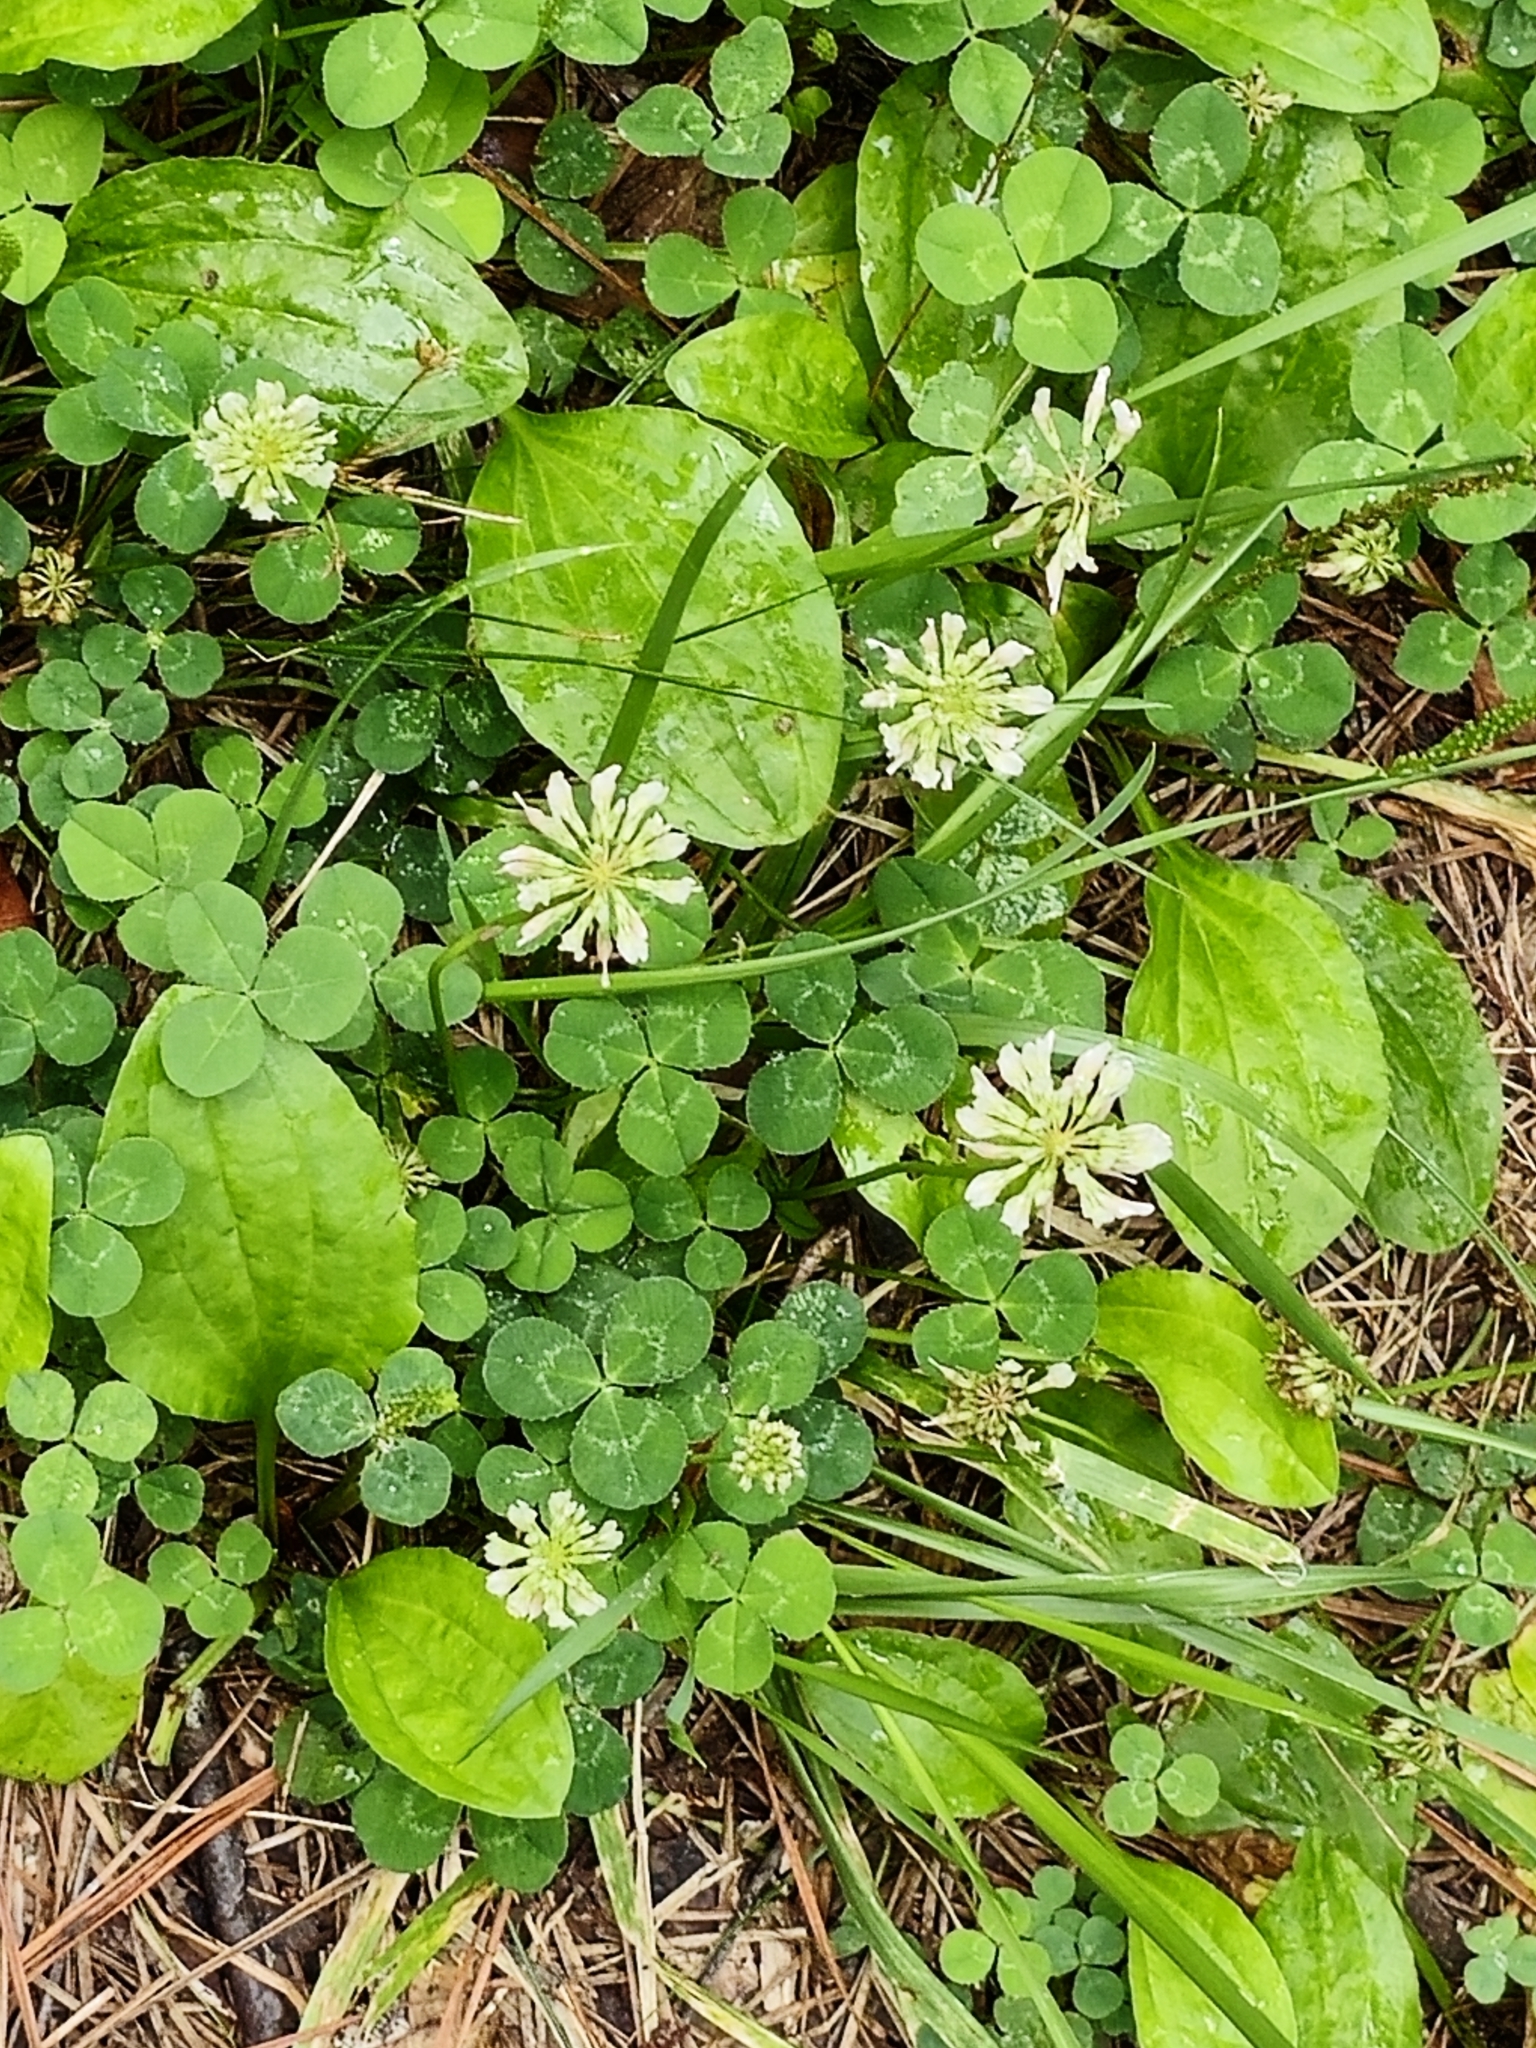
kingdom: Plantae
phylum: Tracheophyta
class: Magnoliopsida
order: Fabales
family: Fabaceae
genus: Trifolium
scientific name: Trifolium repens
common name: White clover
